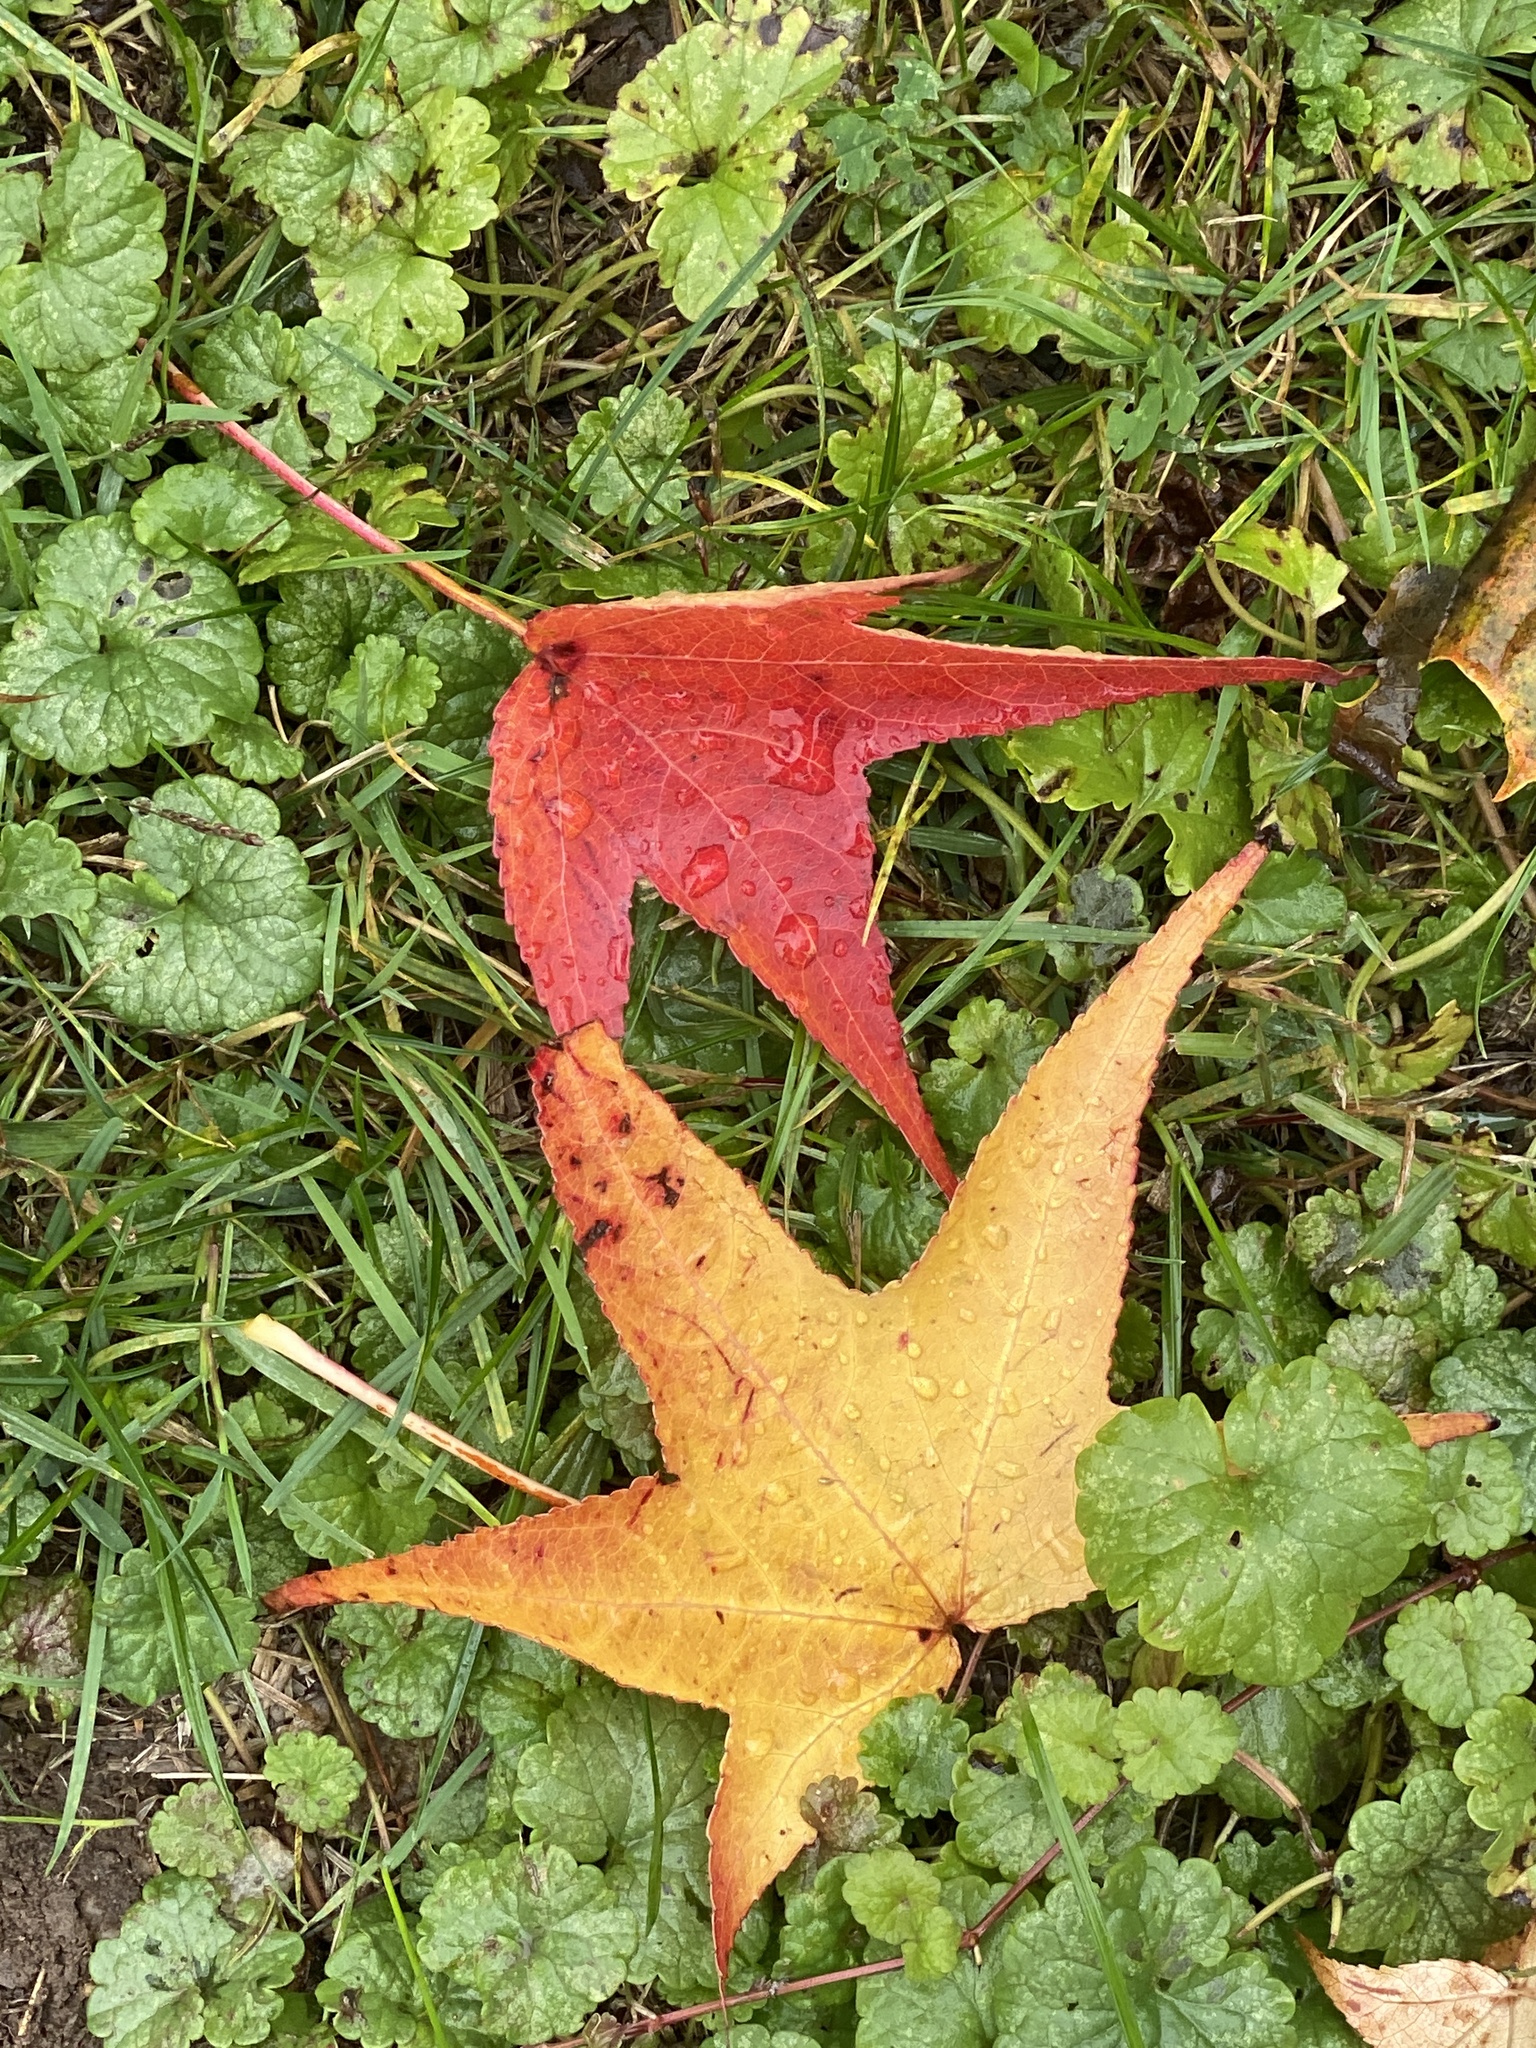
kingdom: Plantae
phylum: Tracheophyta
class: Magnoliopsida
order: Saxifragales
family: Altingiaceae
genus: Liquidambar
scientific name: Liquidambar styraciflua
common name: Sweet gum
